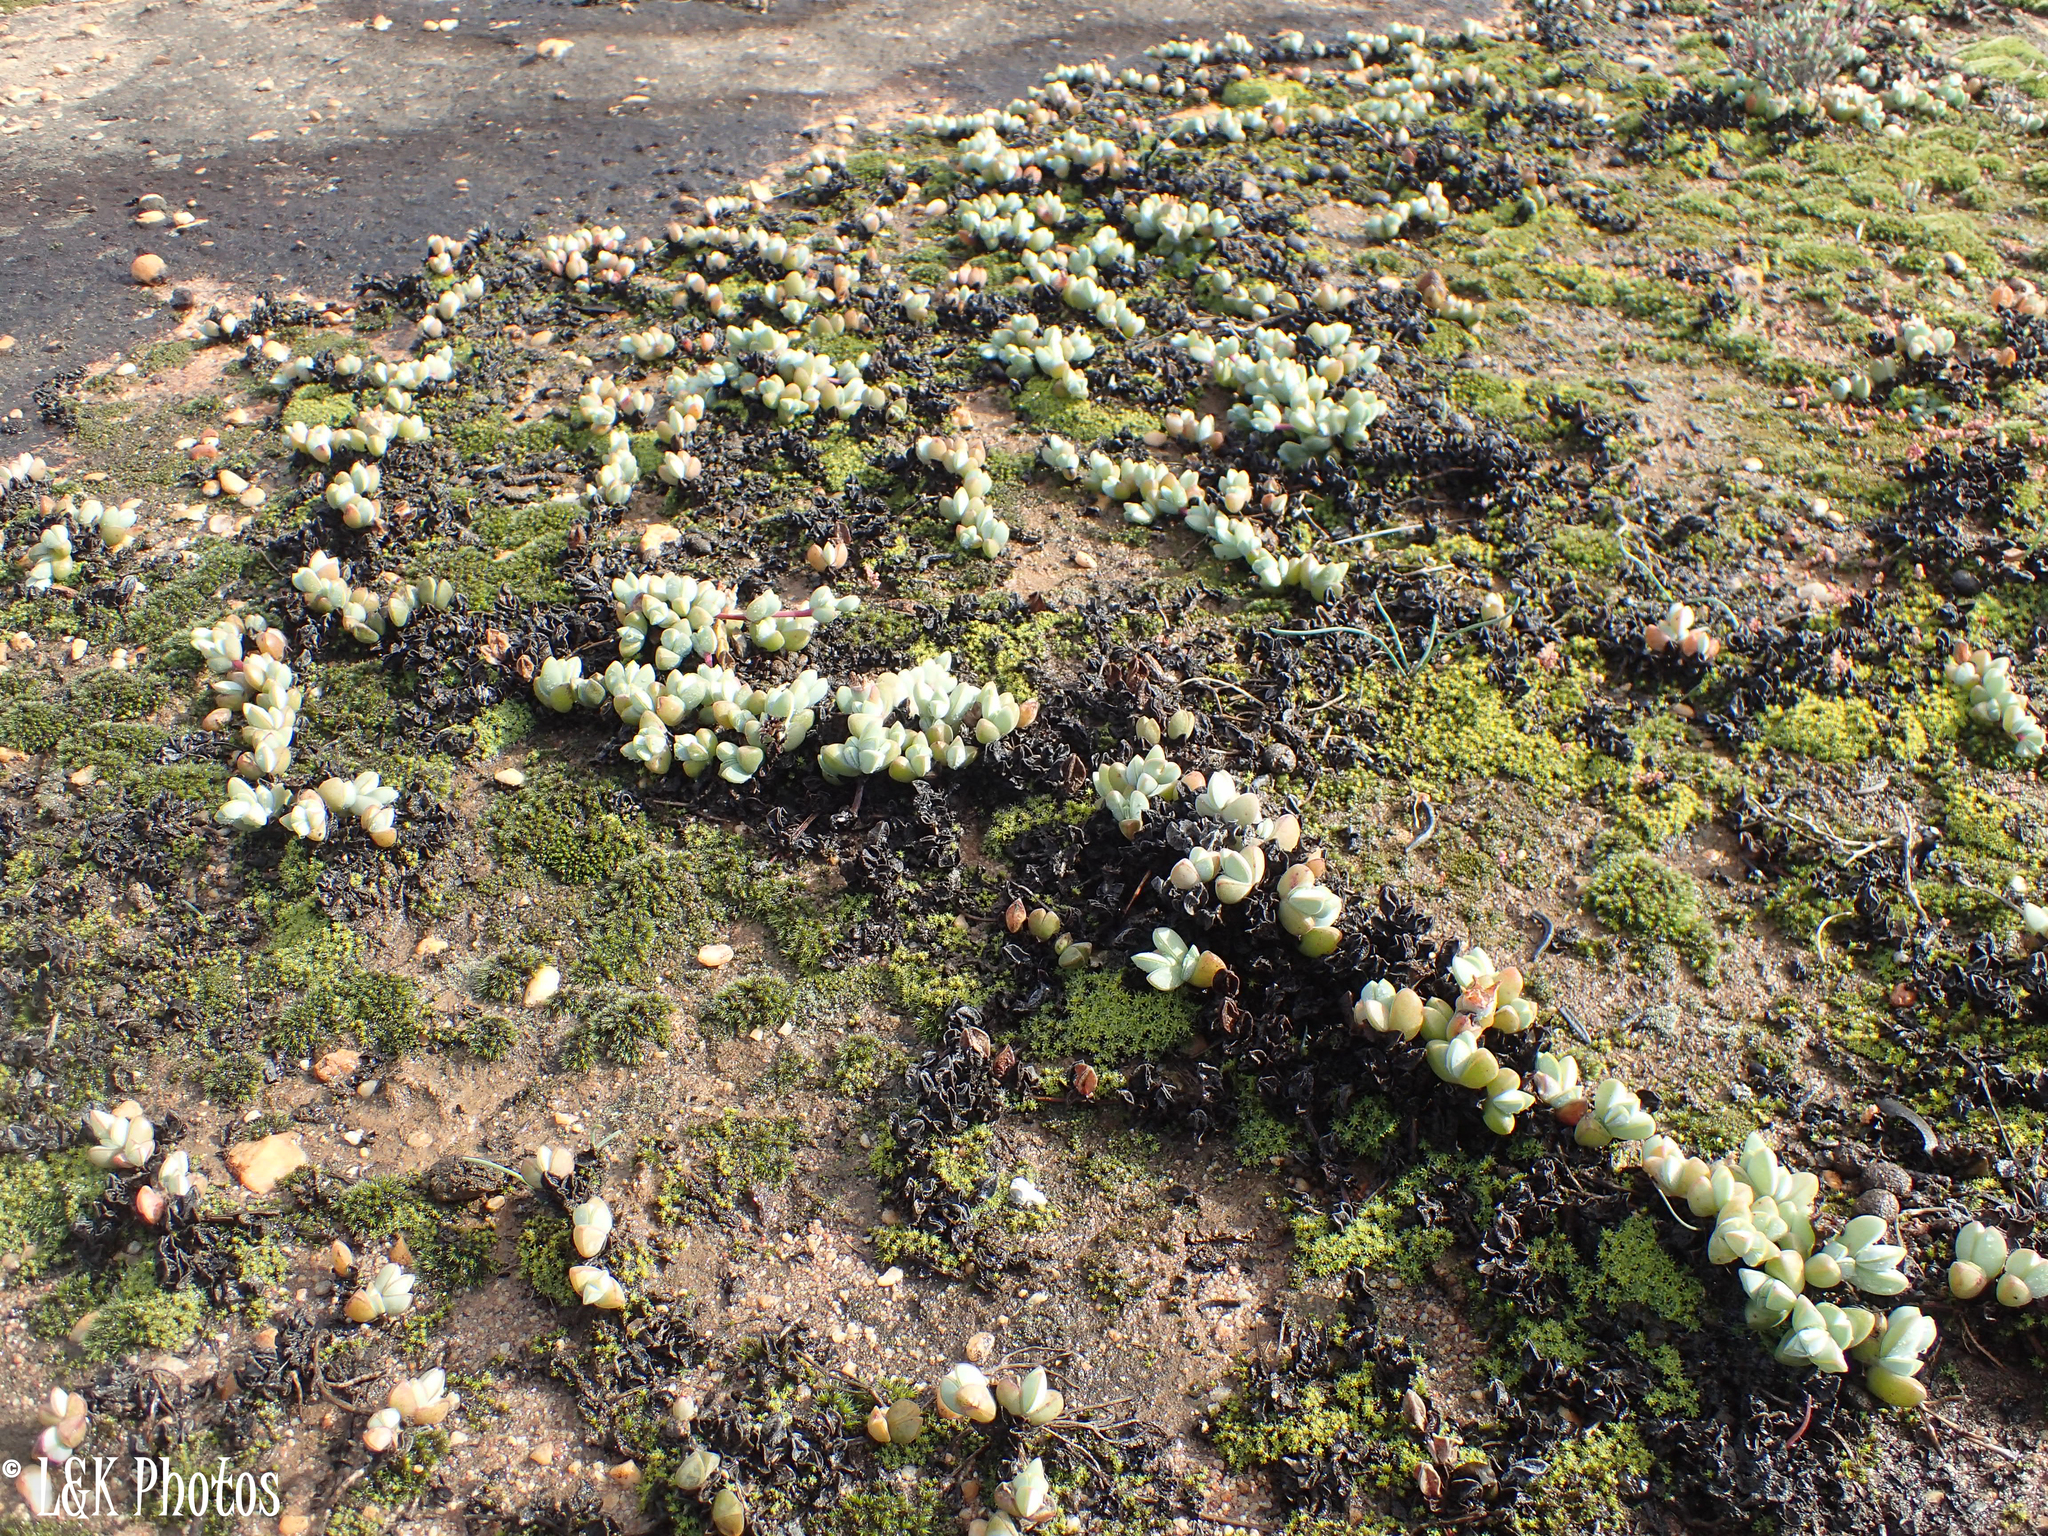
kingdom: Plantae
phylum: Tracheophyta
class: Magnoliopsida
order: Caryophyllales
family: Aizoaceae
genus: Braunsia
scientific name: Braunsia maximiliani
